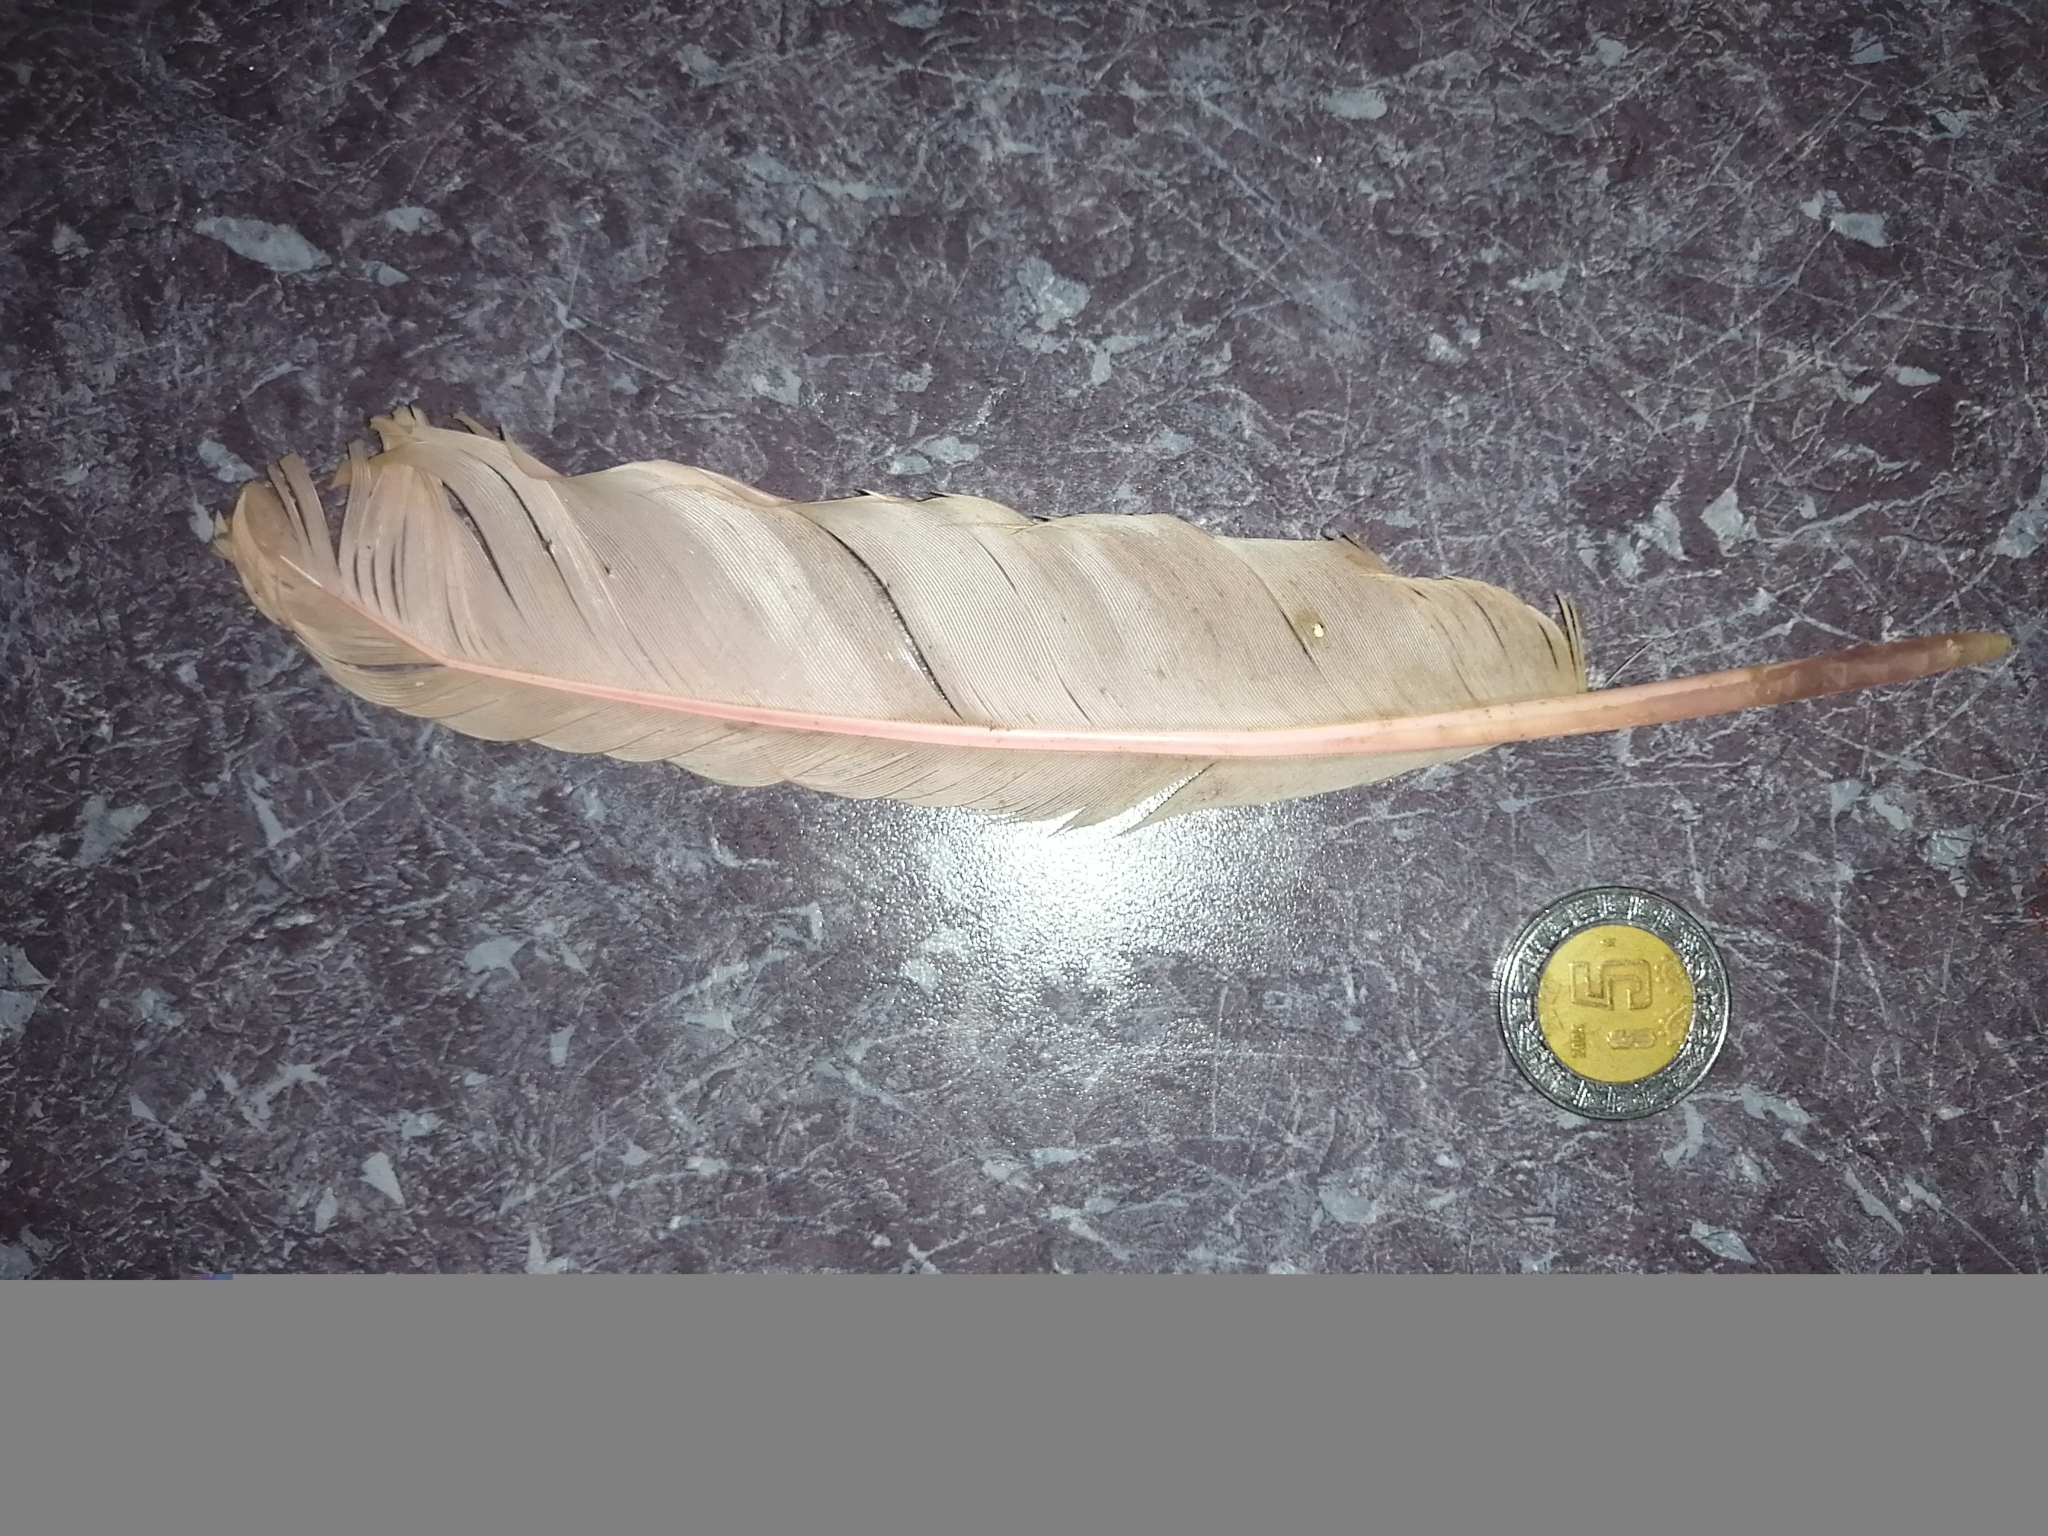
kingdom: Animalia
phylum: Chordata
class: Aves
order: Pelecaniformes
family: Threskiornithidae
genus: Platalea
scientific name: Platalea ajaja
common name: Roseate spoonbill
